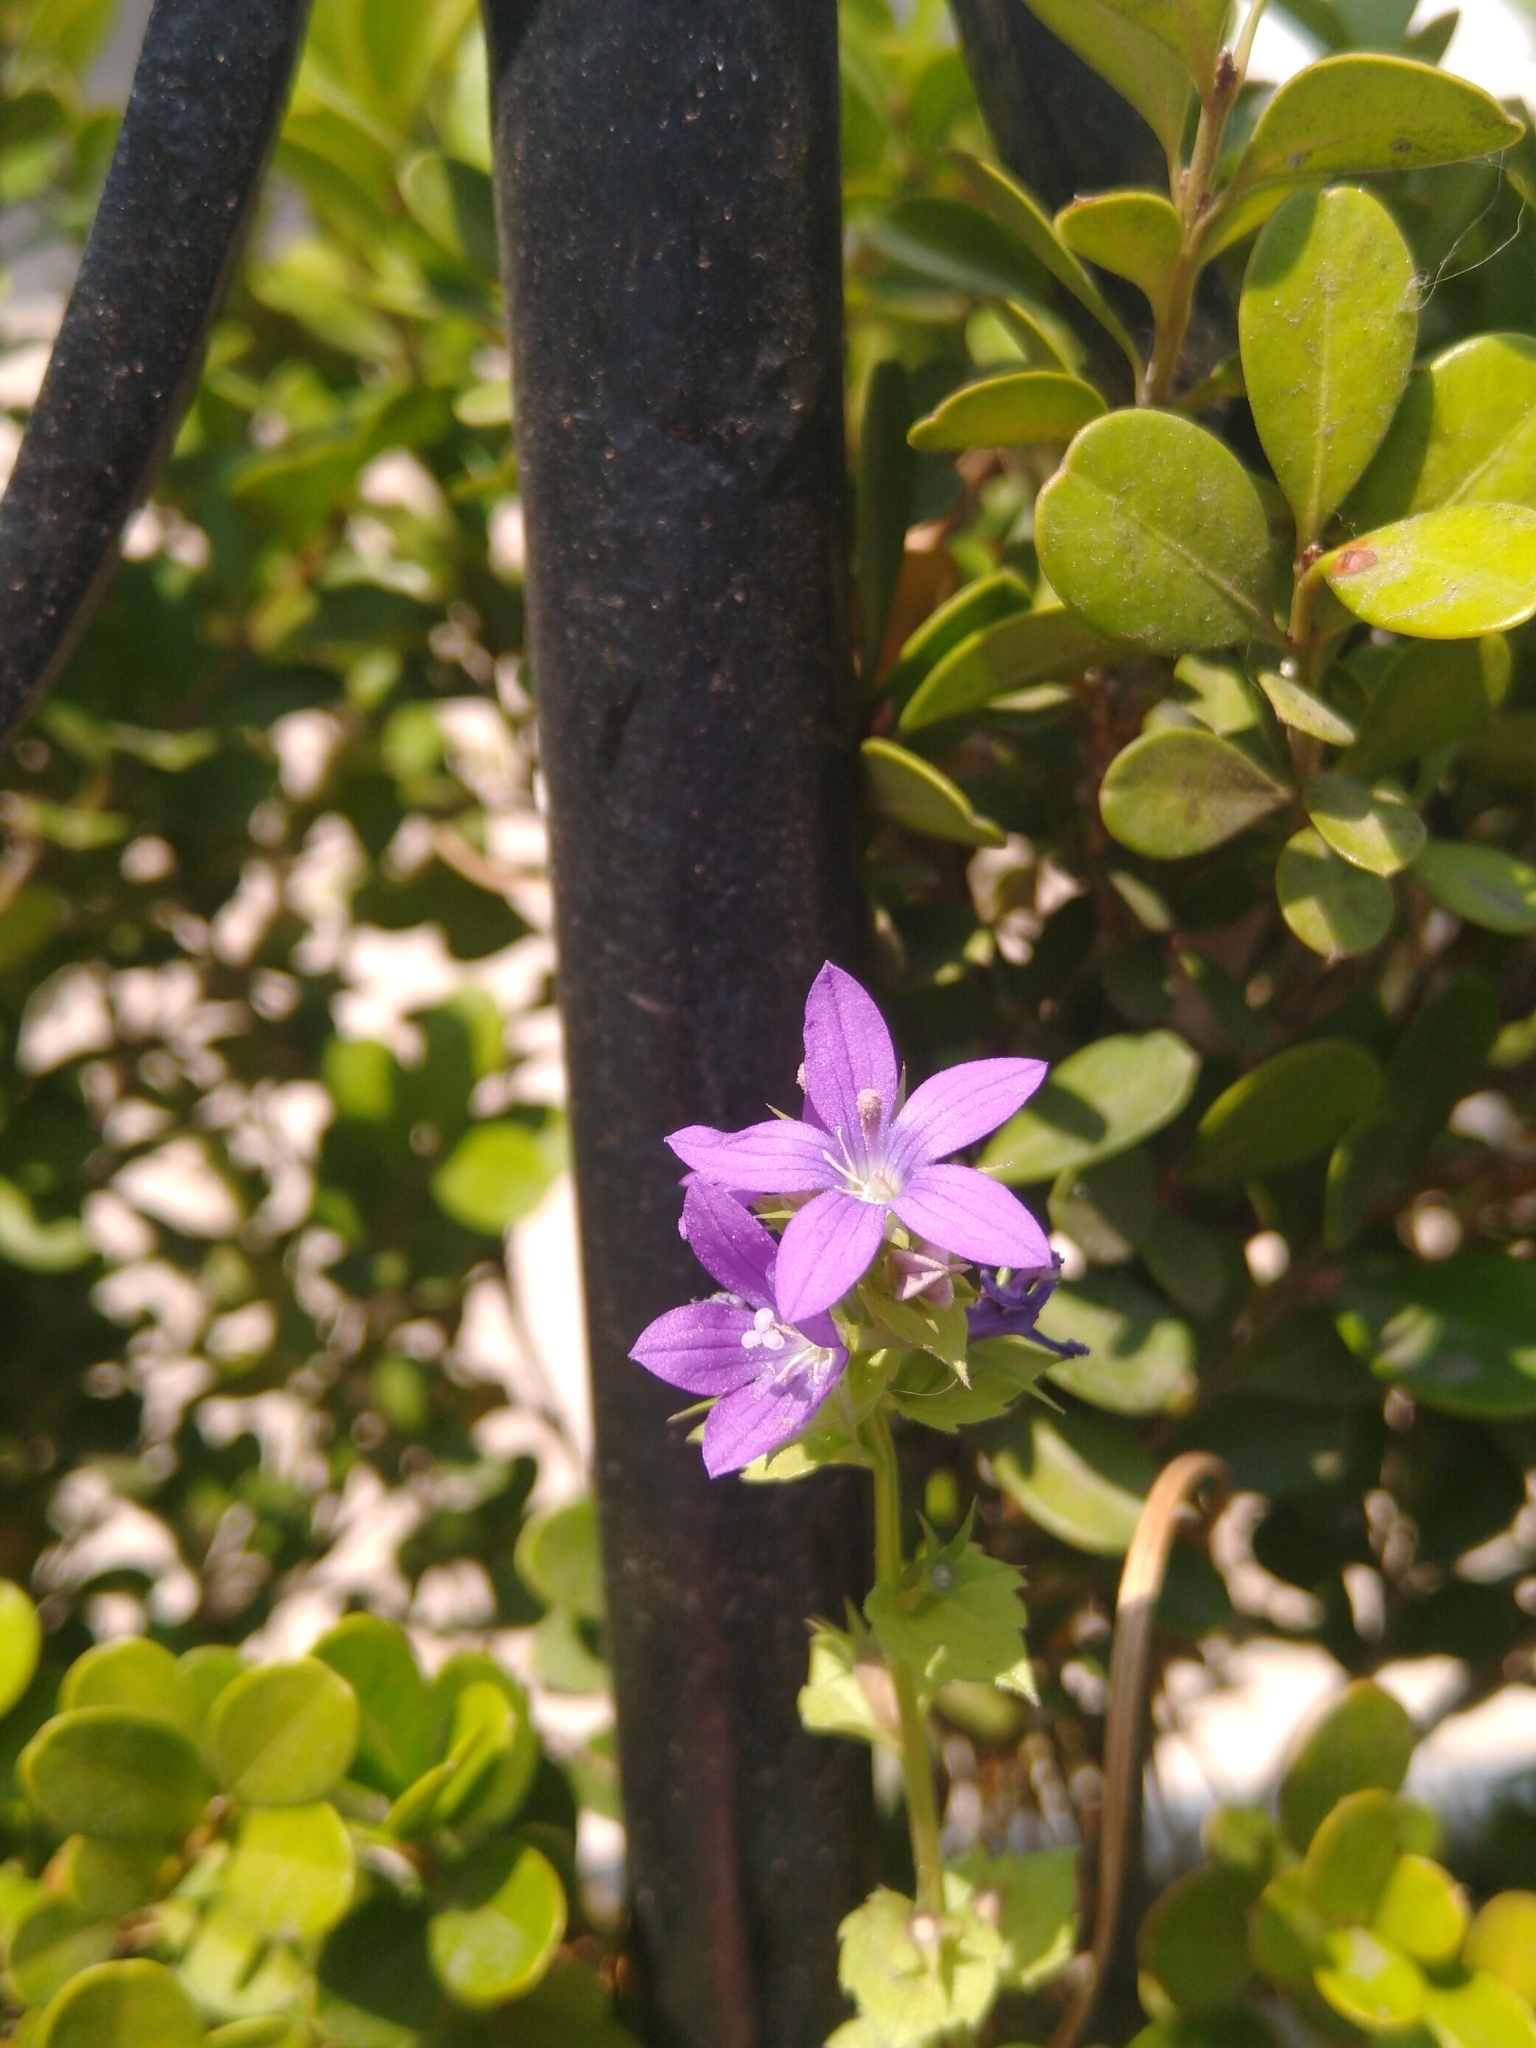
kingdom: Plantae
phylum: Tracheophyta
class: Magnoliopsida
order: Asterales
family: Campanulaceae
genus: Triodanis
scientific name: Triodanis perfoliata
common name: Clasping venus' looking-glass
